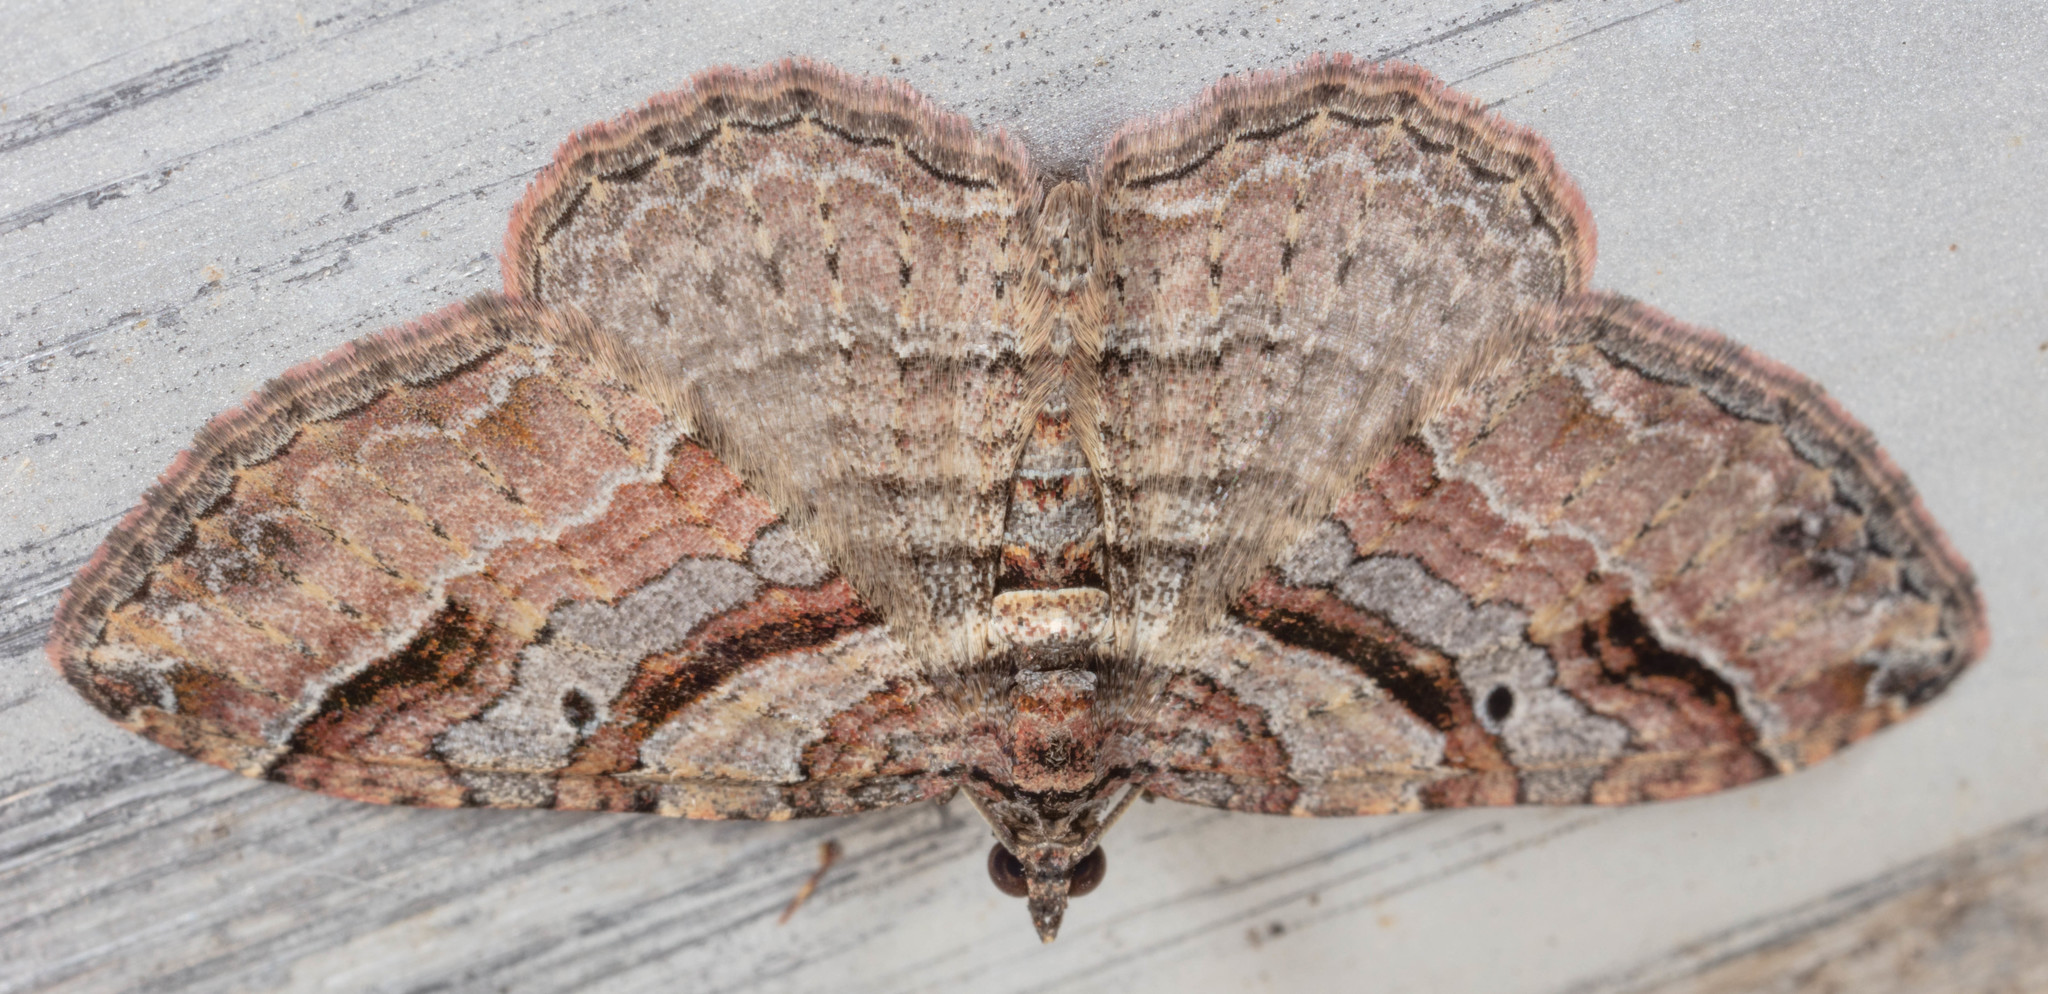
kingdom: Animalia
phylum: Arthropoda
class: Insecta
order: Lepidoptera
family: Geometridae
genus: Costaconvexa
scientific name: Costaconvexa centrostrigaria
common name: Bent-line carpet
